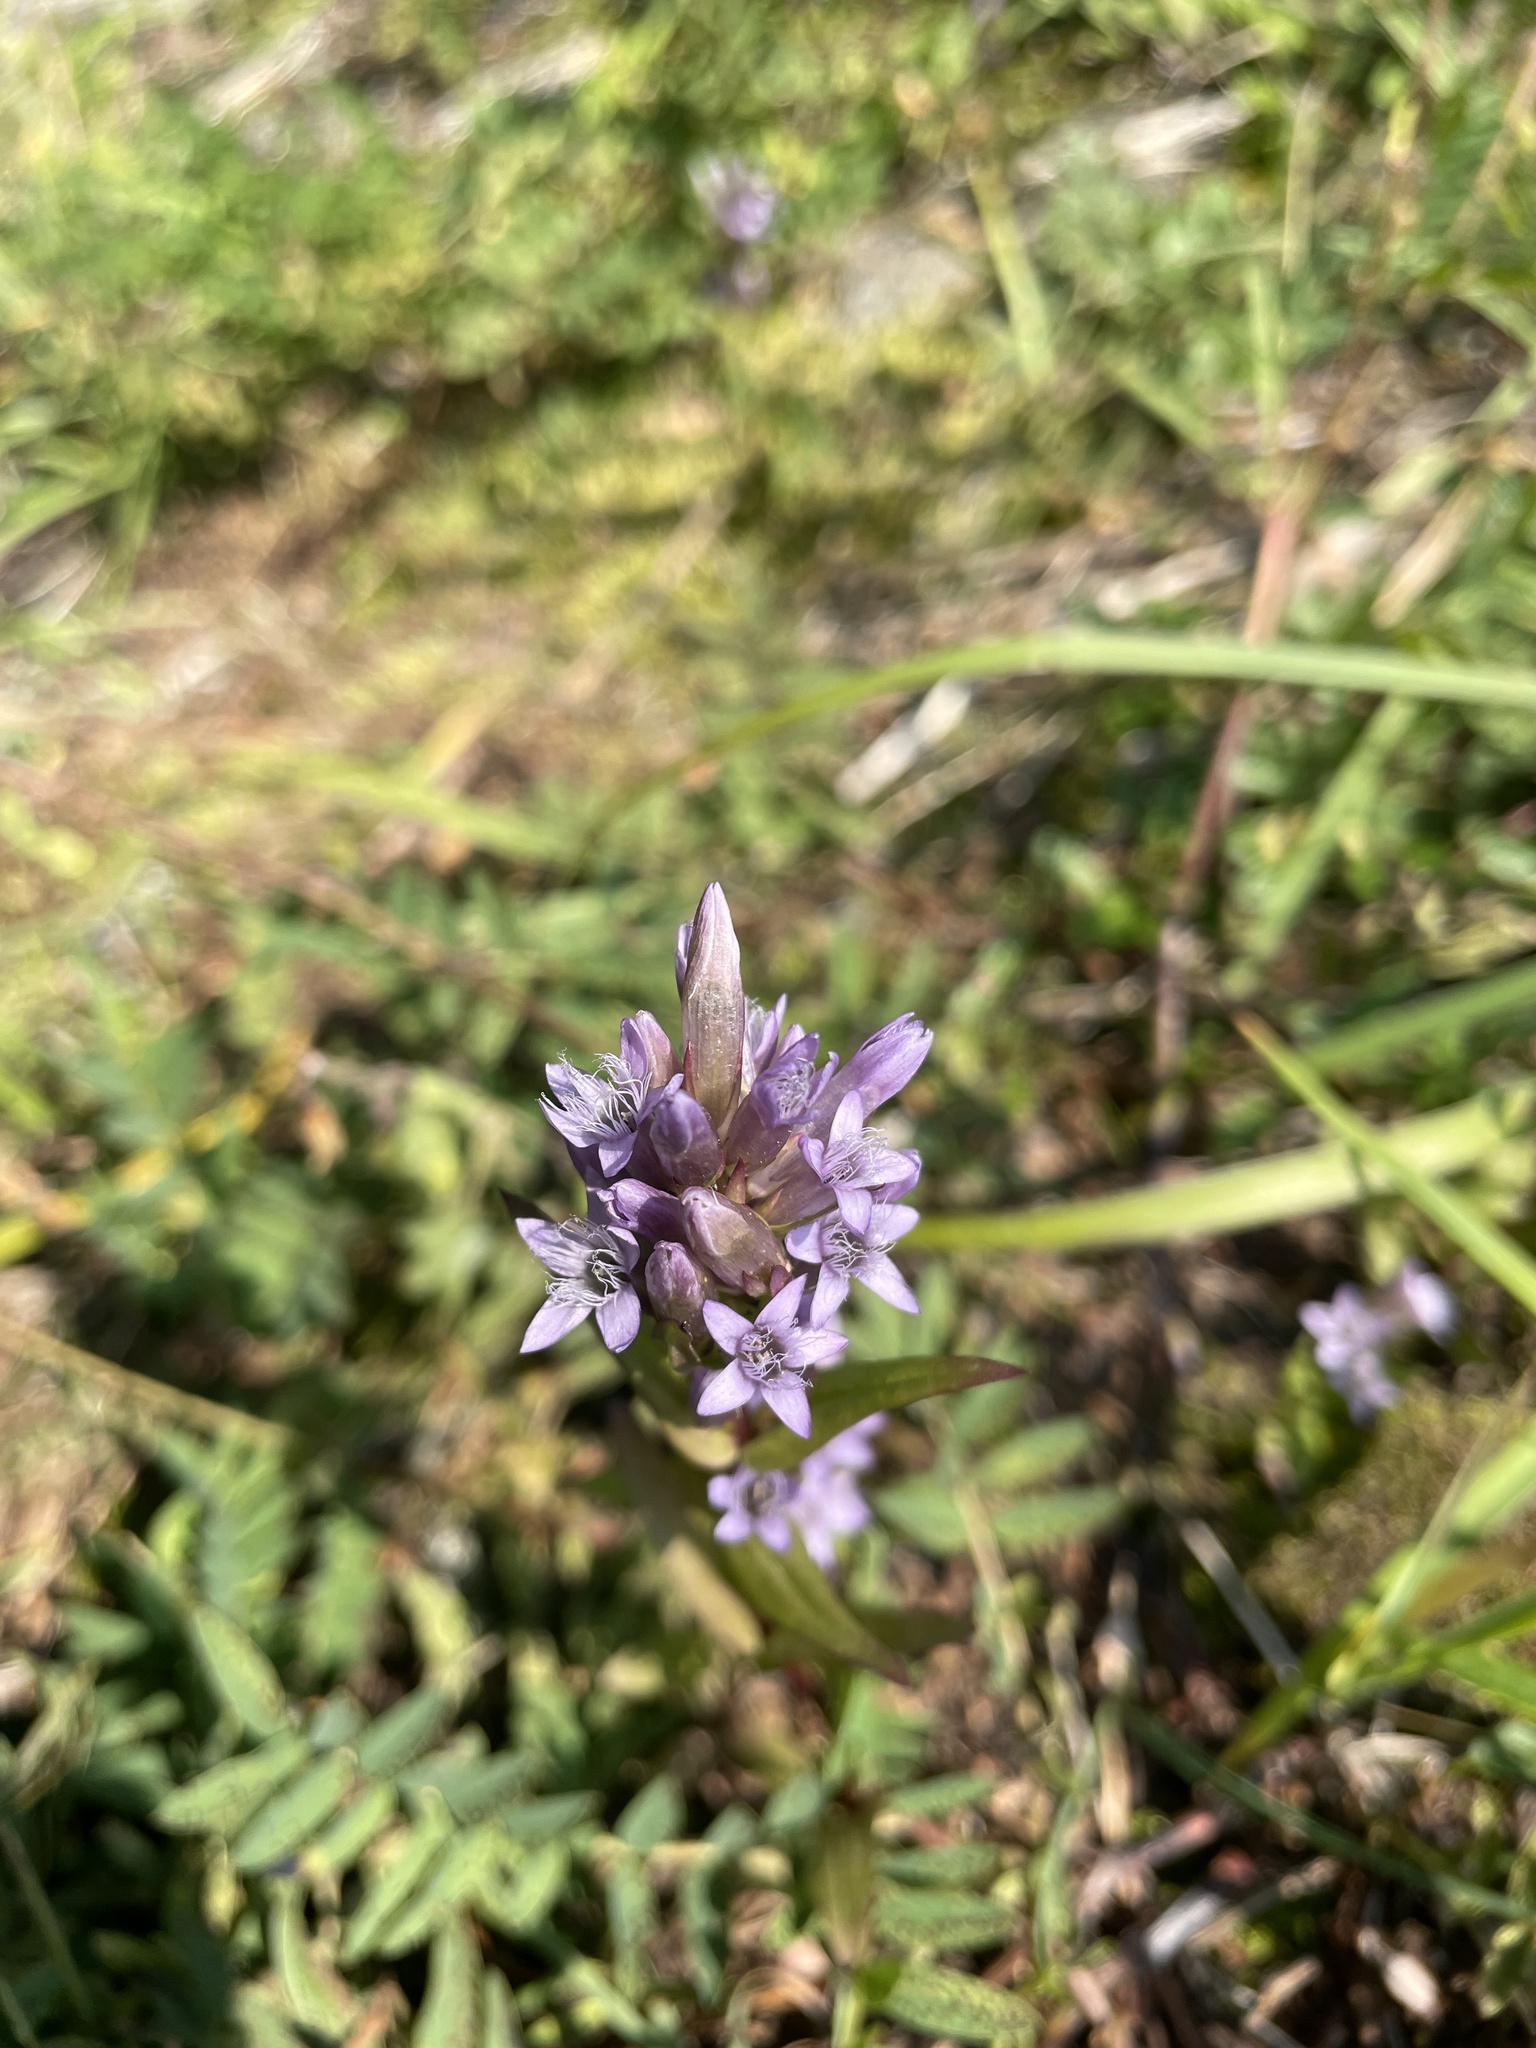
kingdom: Plantae
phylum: Tracheophyta
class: Magnoliopsida
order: Gentianales
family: Gentianaceae
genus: Gentianella
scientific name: Gentianella amarella
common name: Autumn gentian
